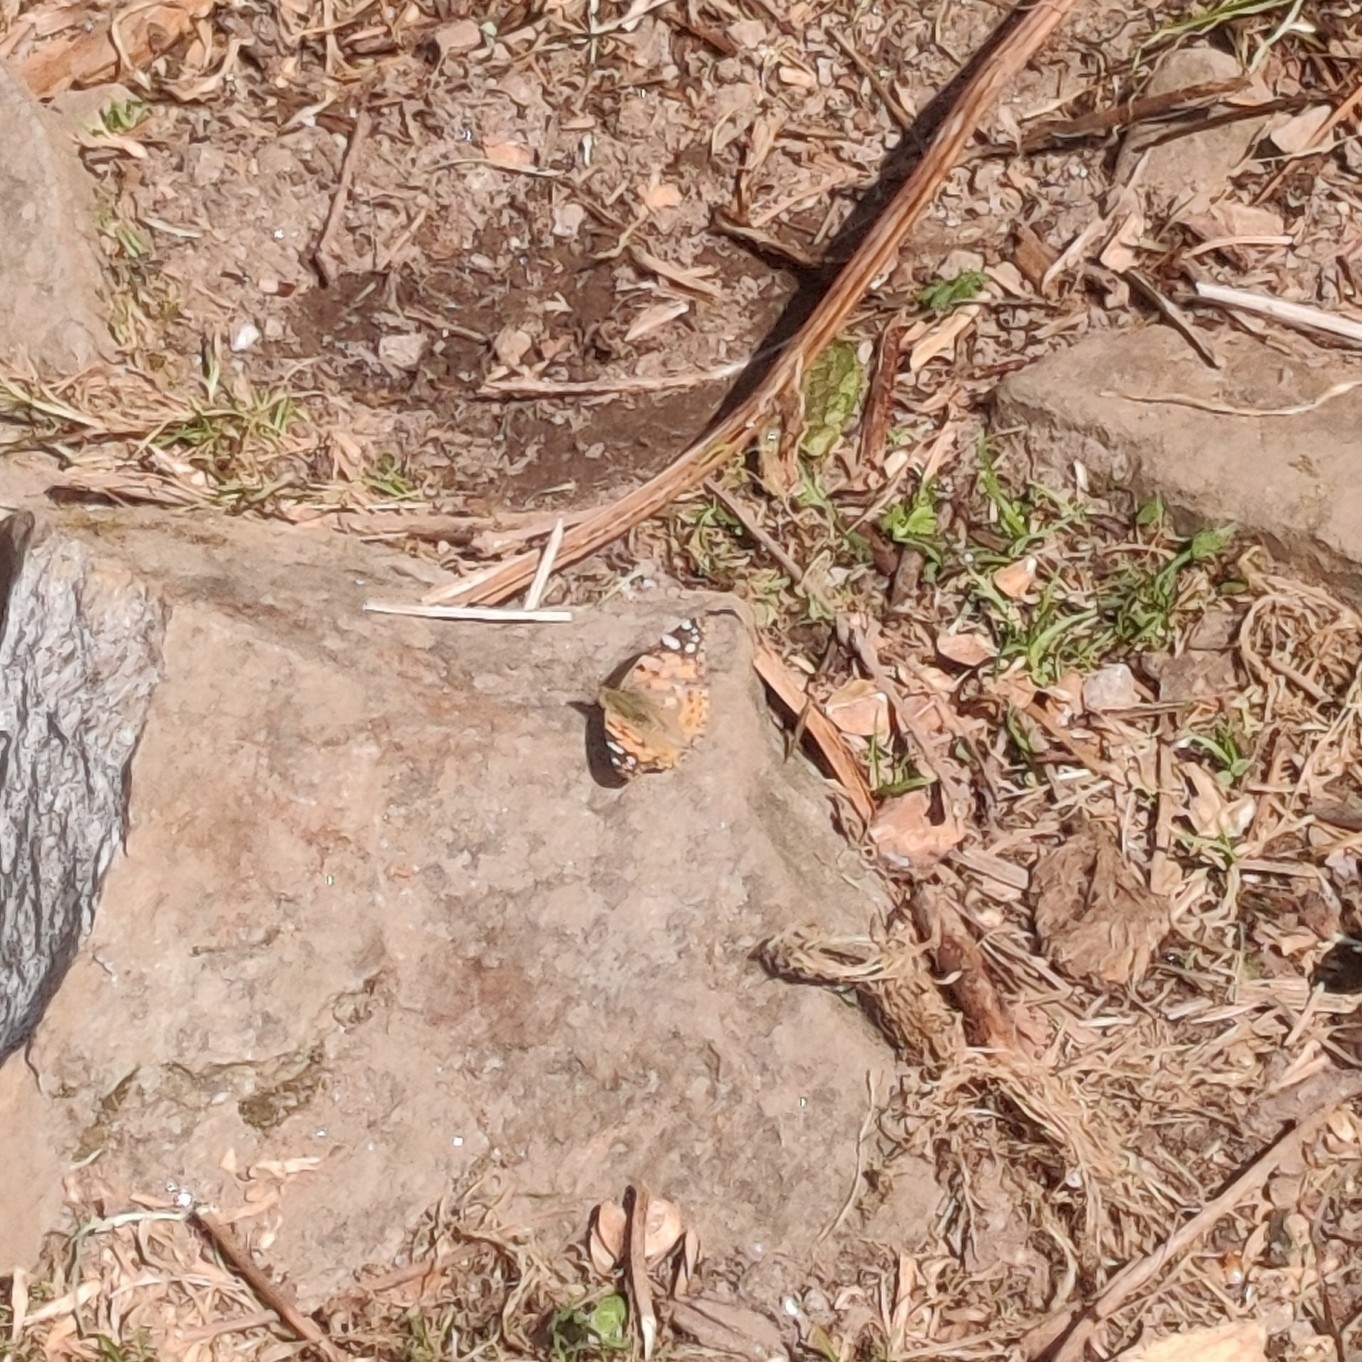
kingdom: Animalia
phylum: Arthropoda
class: Insecta
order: Lepidoptera
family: Nymphalidae
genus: Vanessa
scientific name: Vanessa cardui
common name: Painted lady
